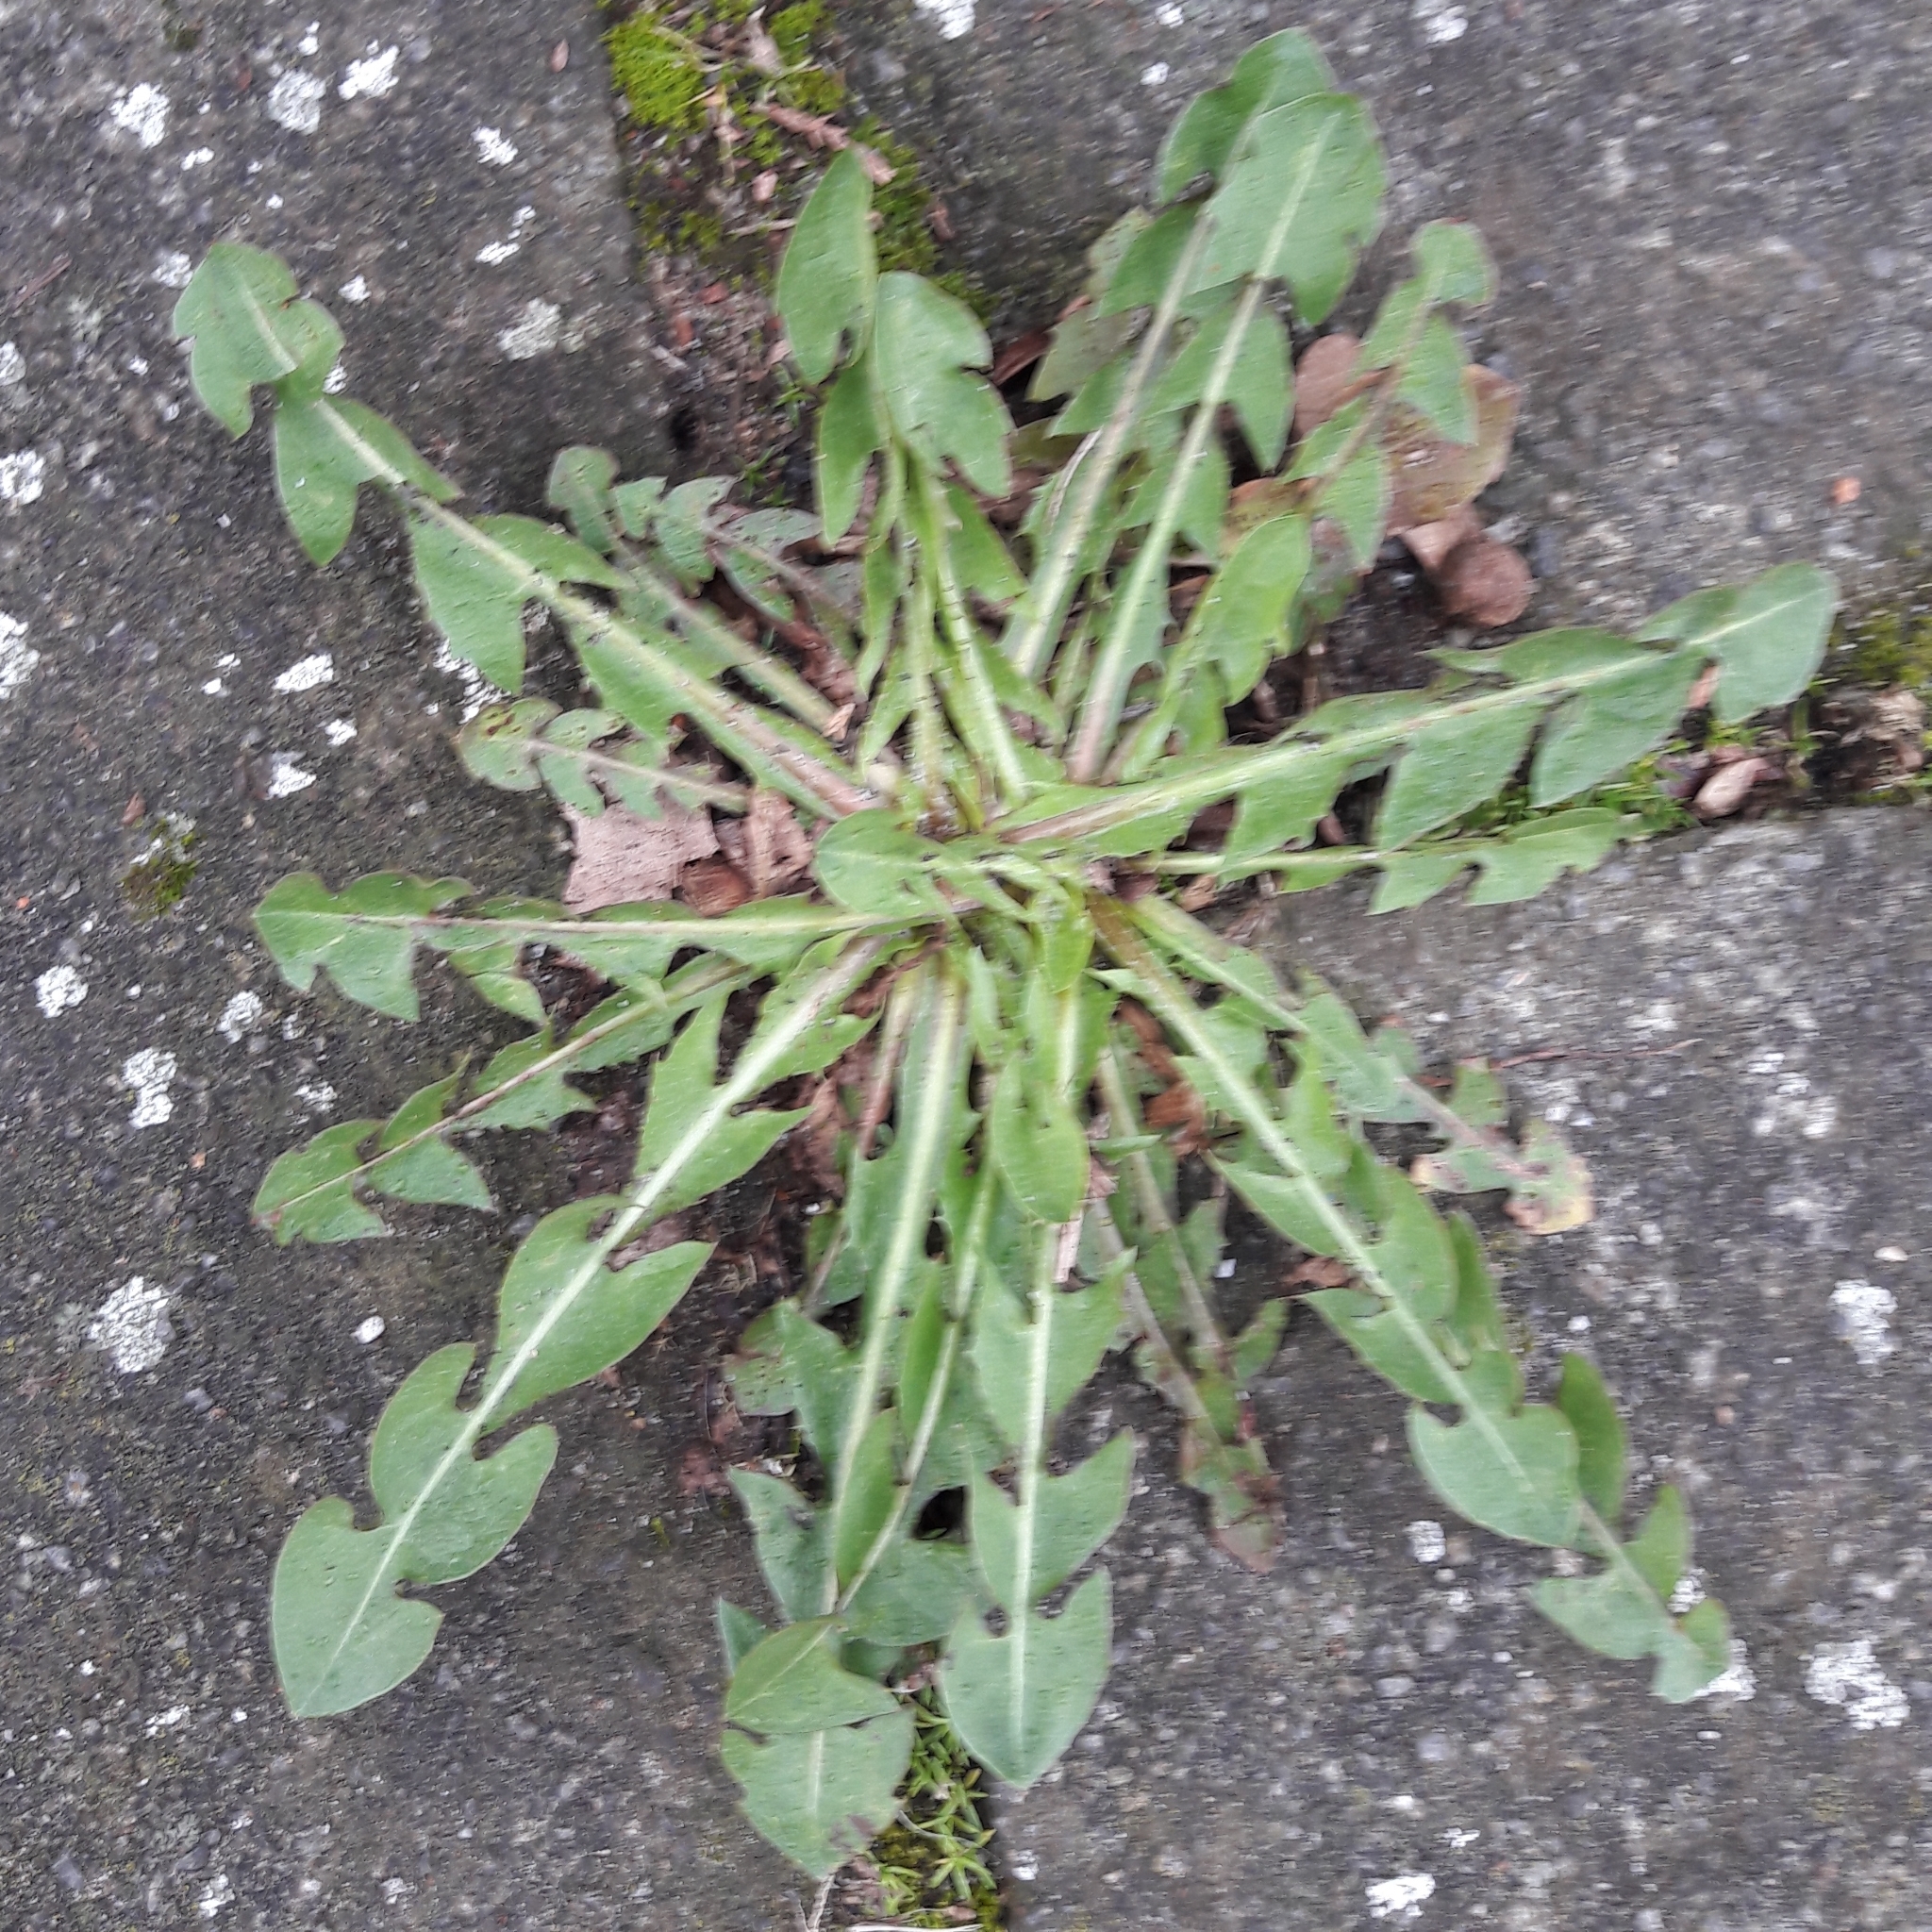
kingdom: Plantae
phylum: Tracheophyta
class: Magnoliopsida
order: Asterales
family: Asteraceae
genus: Taraxacum
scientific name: Taraxacum officinale
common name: Common dandelion
